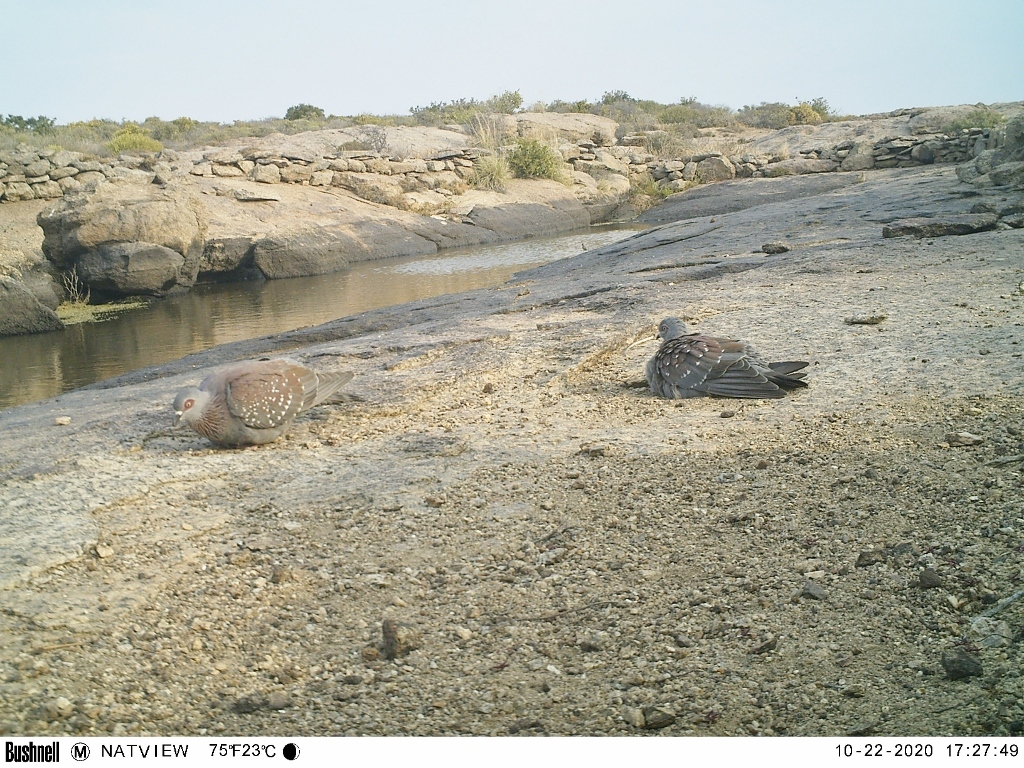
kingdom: Animalia
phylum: Chordata
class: Aves
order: Columbiformes
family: Columbidae
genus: Columba
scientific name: Columba guinea
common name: Speckled pigeon
